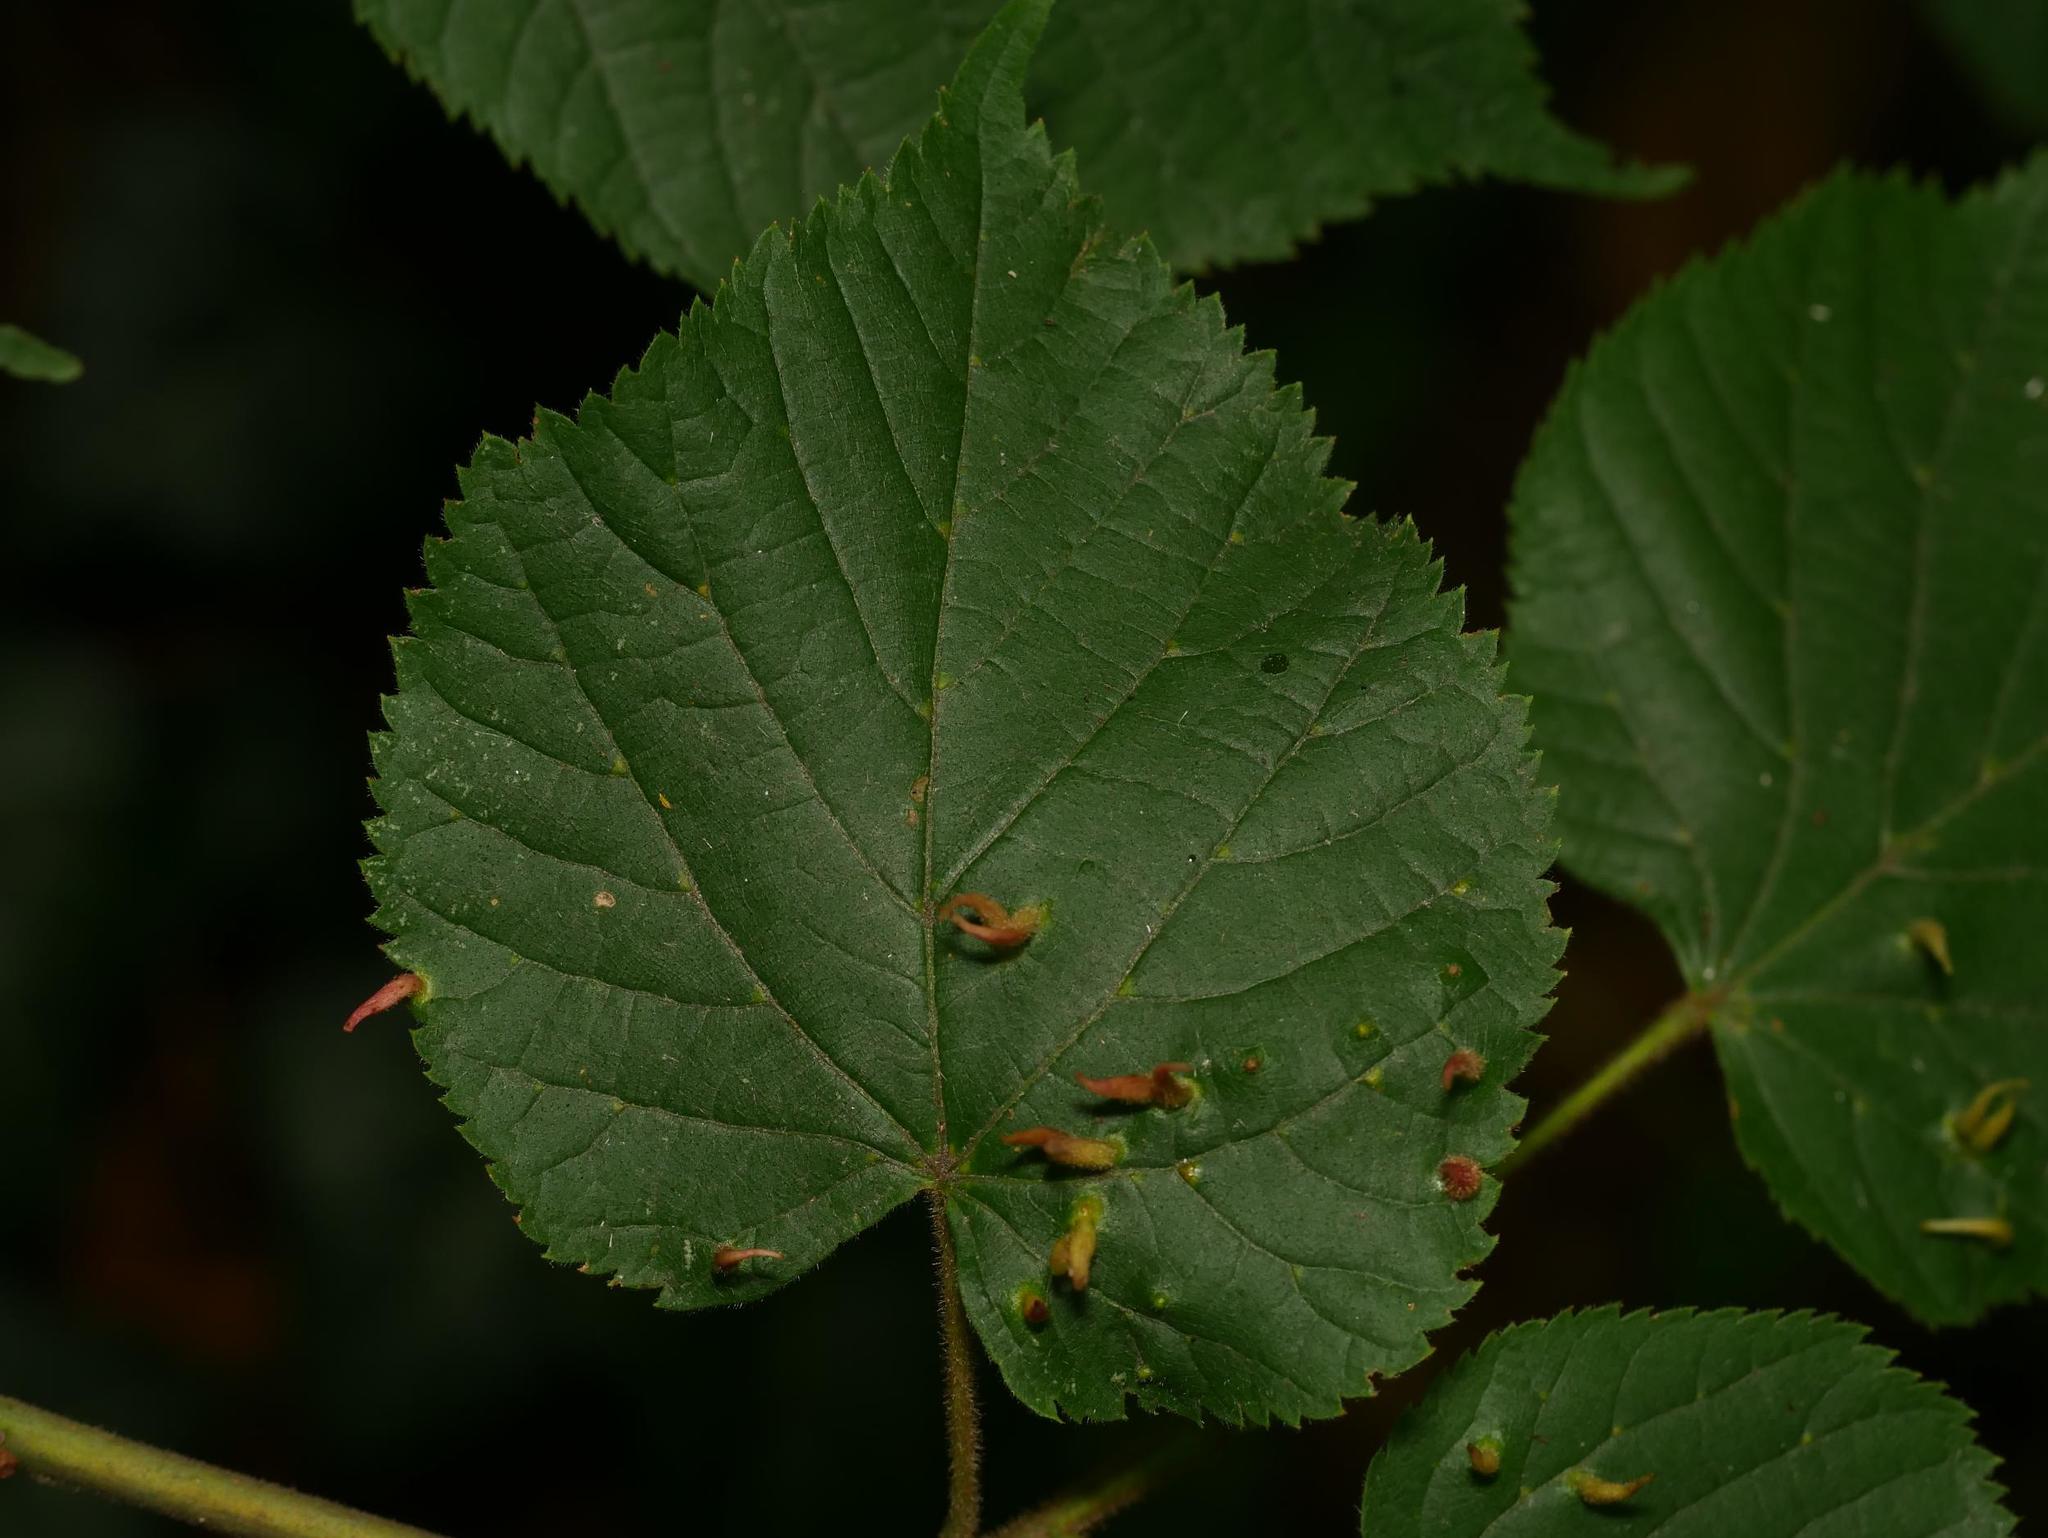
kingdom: Animalia
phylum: Arthropoda
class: Arachnida
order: Trombidiformes
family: Eriophyidae
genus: Eriophyes
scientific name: Eriophyes tiliae
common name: Red nail gall mite
